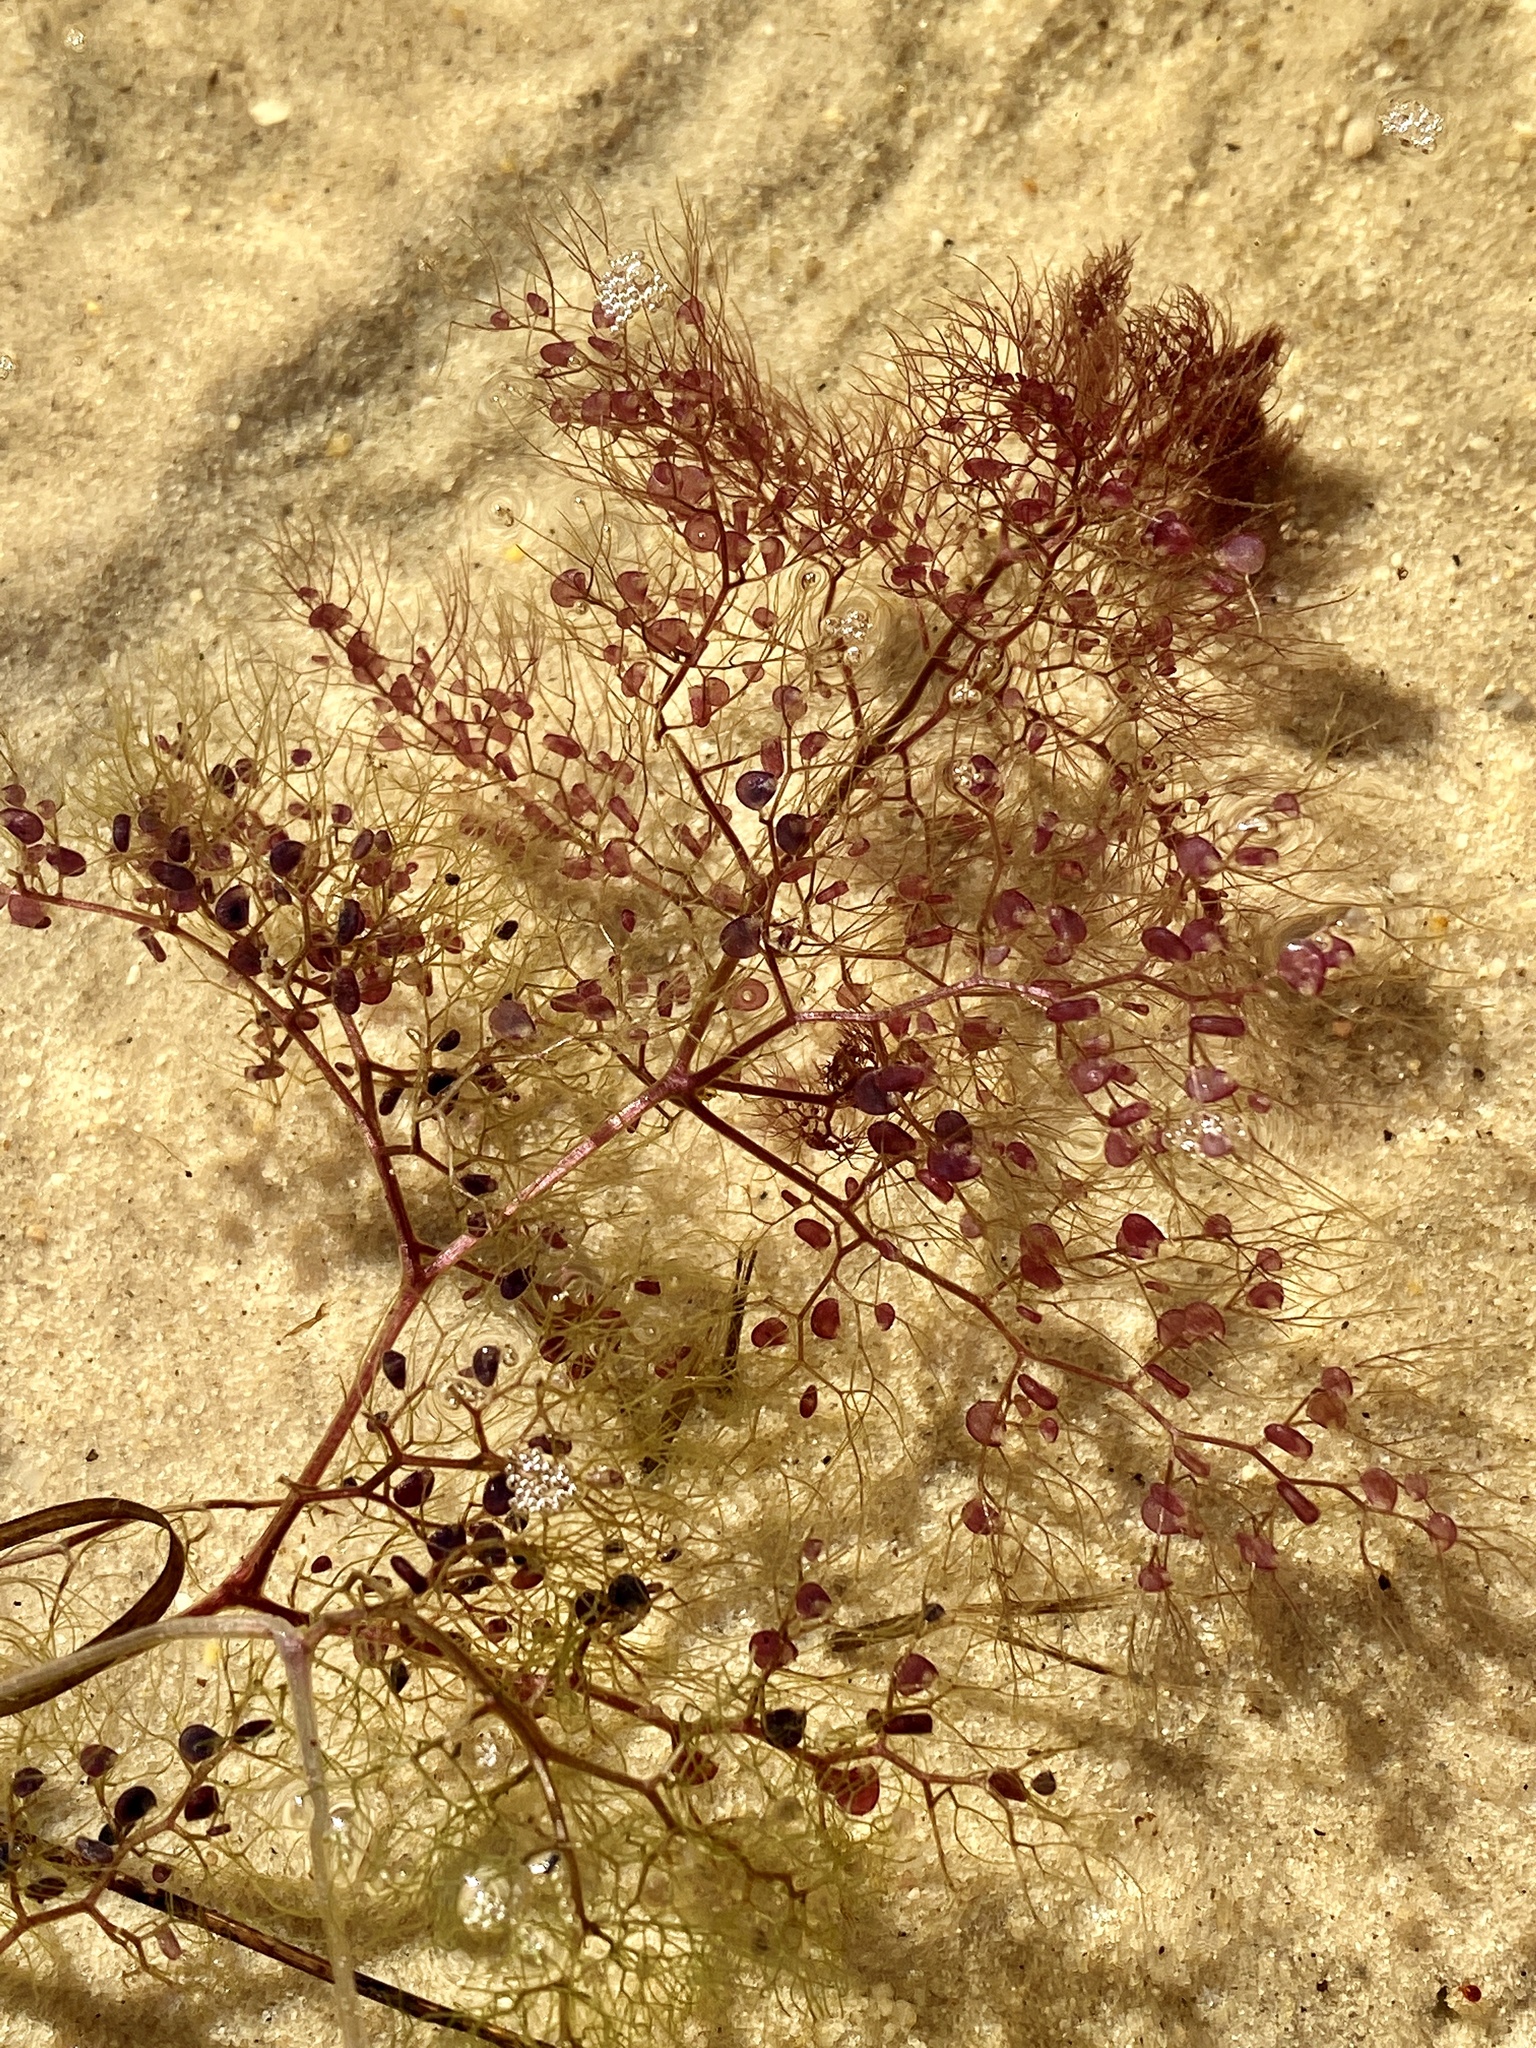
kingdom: Plantae
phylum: Tracheophyta
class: Magnoliopsida
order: Lamiales
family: Lentibulariaceae
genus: Utricularia
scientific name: Utricularia purpurea
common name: Eastern purple bladderwort
